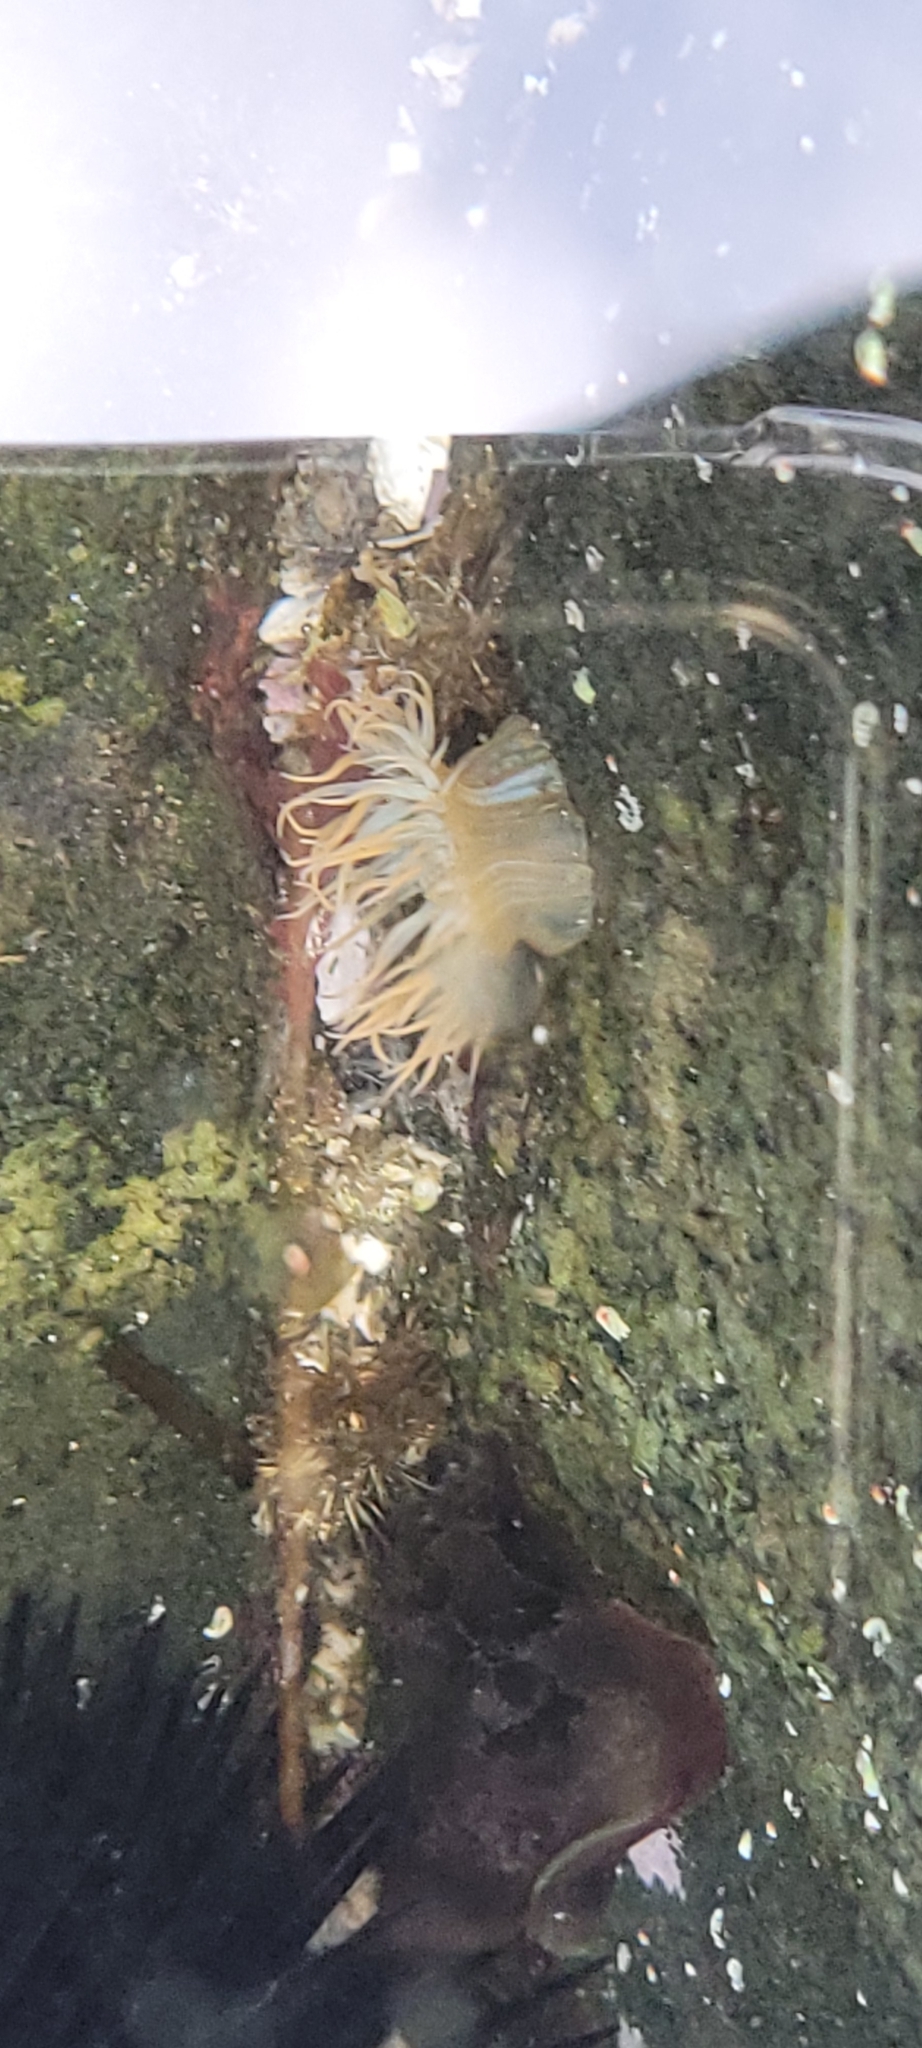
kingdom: Animalia
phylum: Cnidaria
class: Anthozoa
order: Actiniaria
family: Sagartiidae
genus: Anthothoe
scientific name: Anthothoe chilensis
